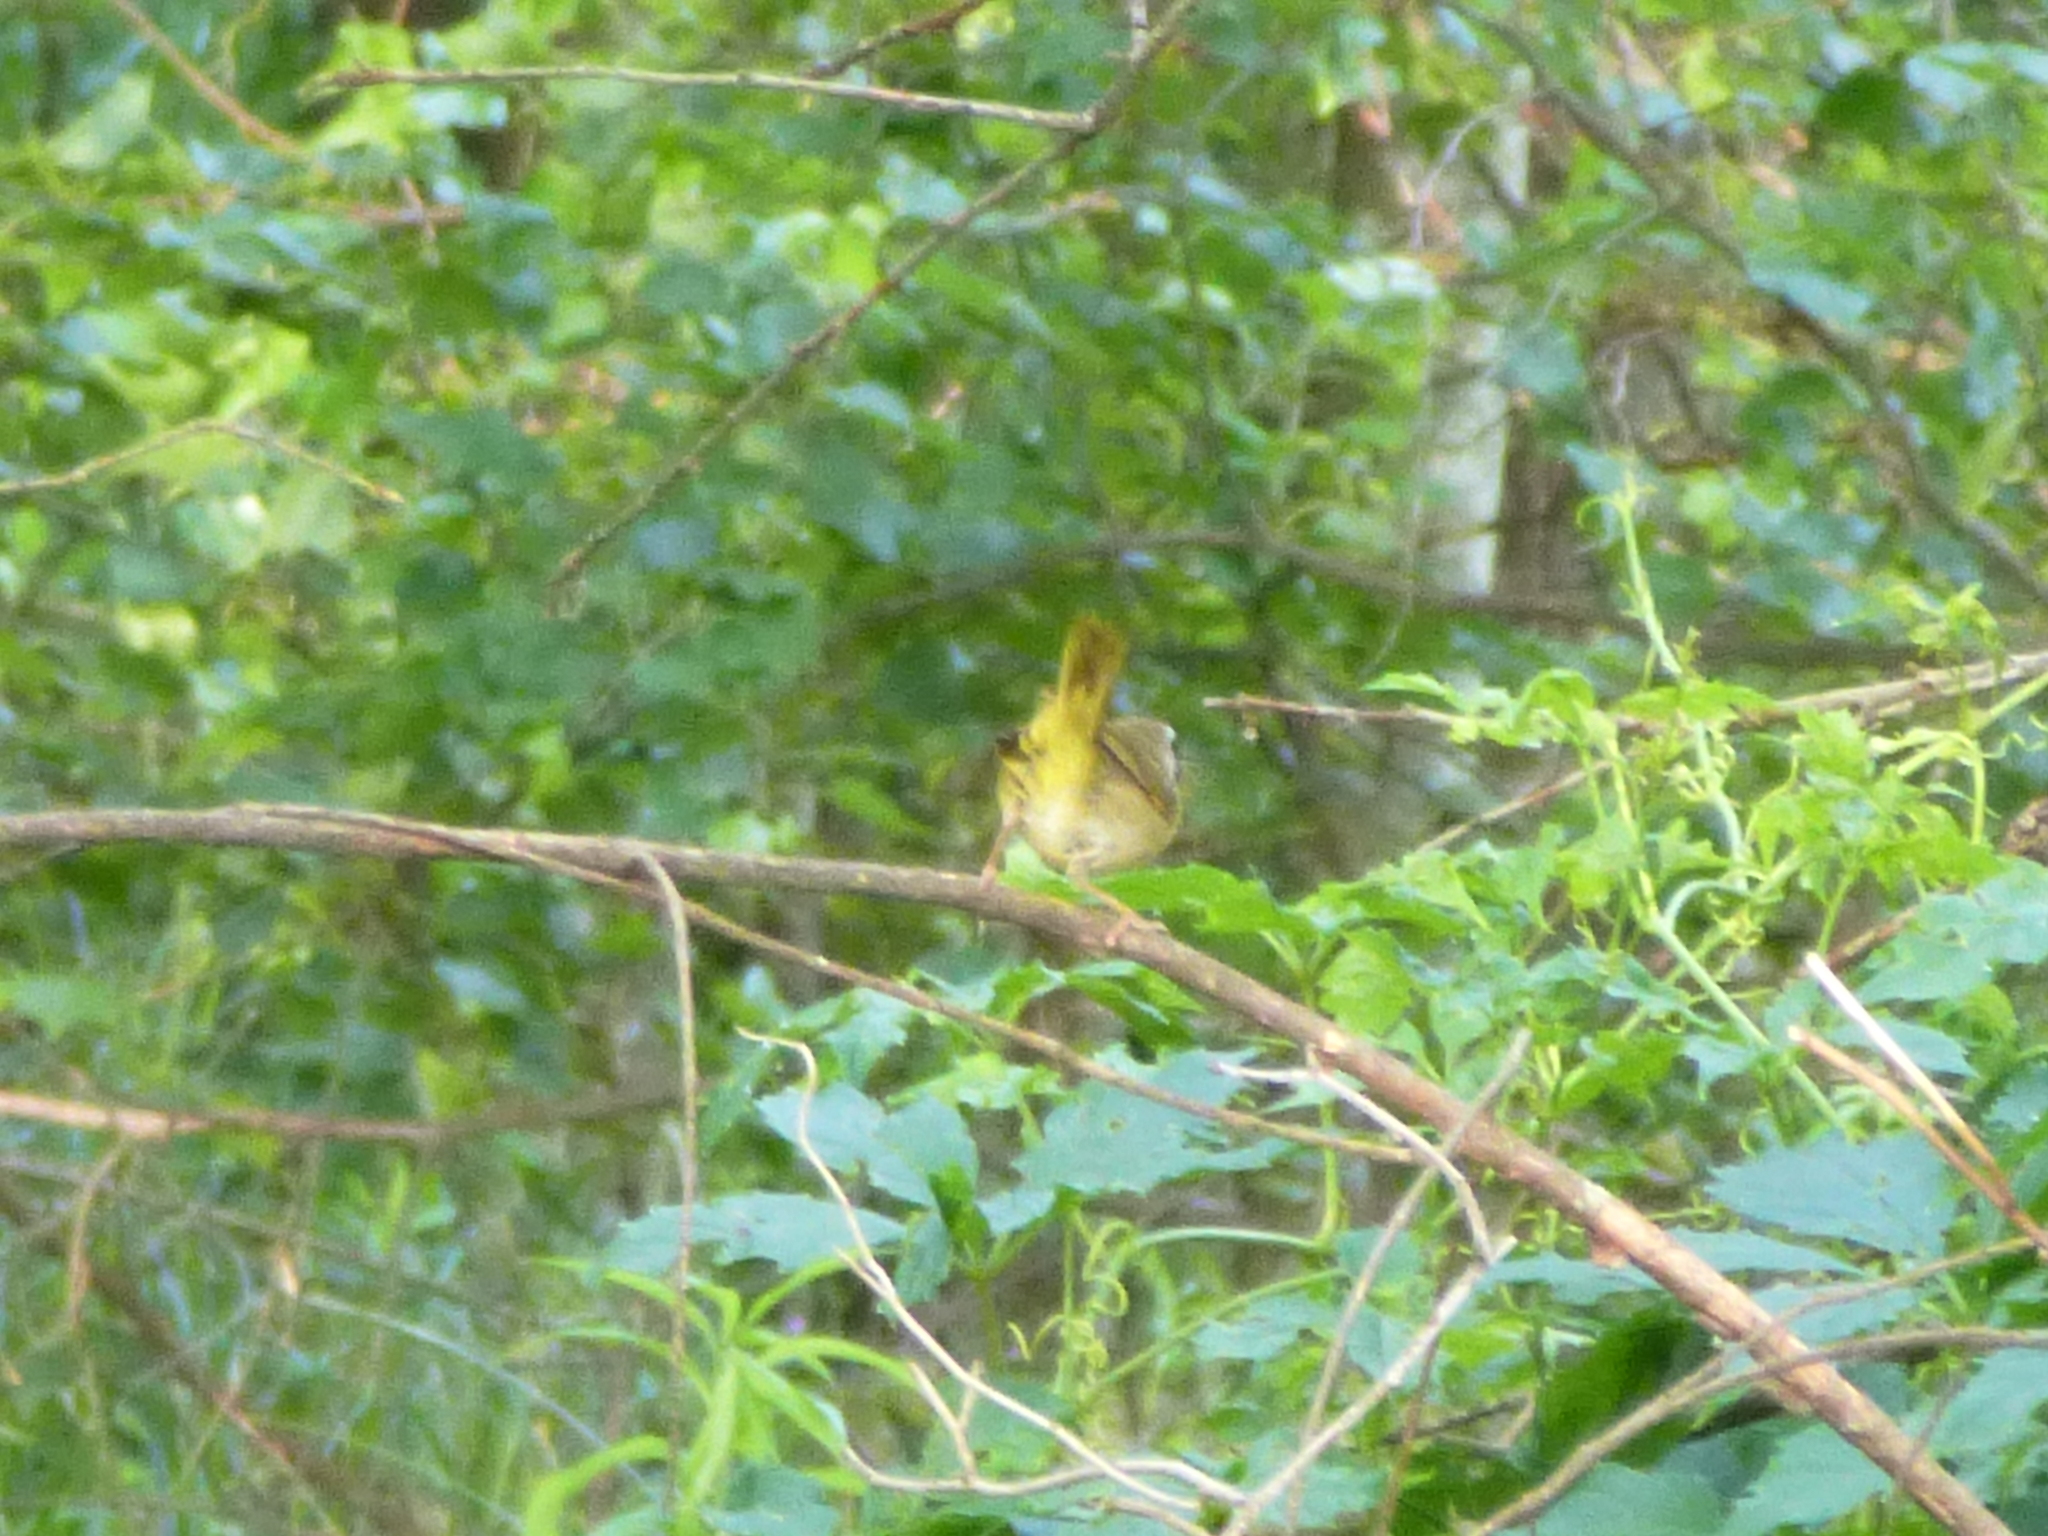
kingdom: Animalia
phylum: Chordata
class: Aves
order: Passeriformes
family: Parulidae
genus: Geothlypis
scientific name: Geothlypis trichas
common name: Common yellowthroat
